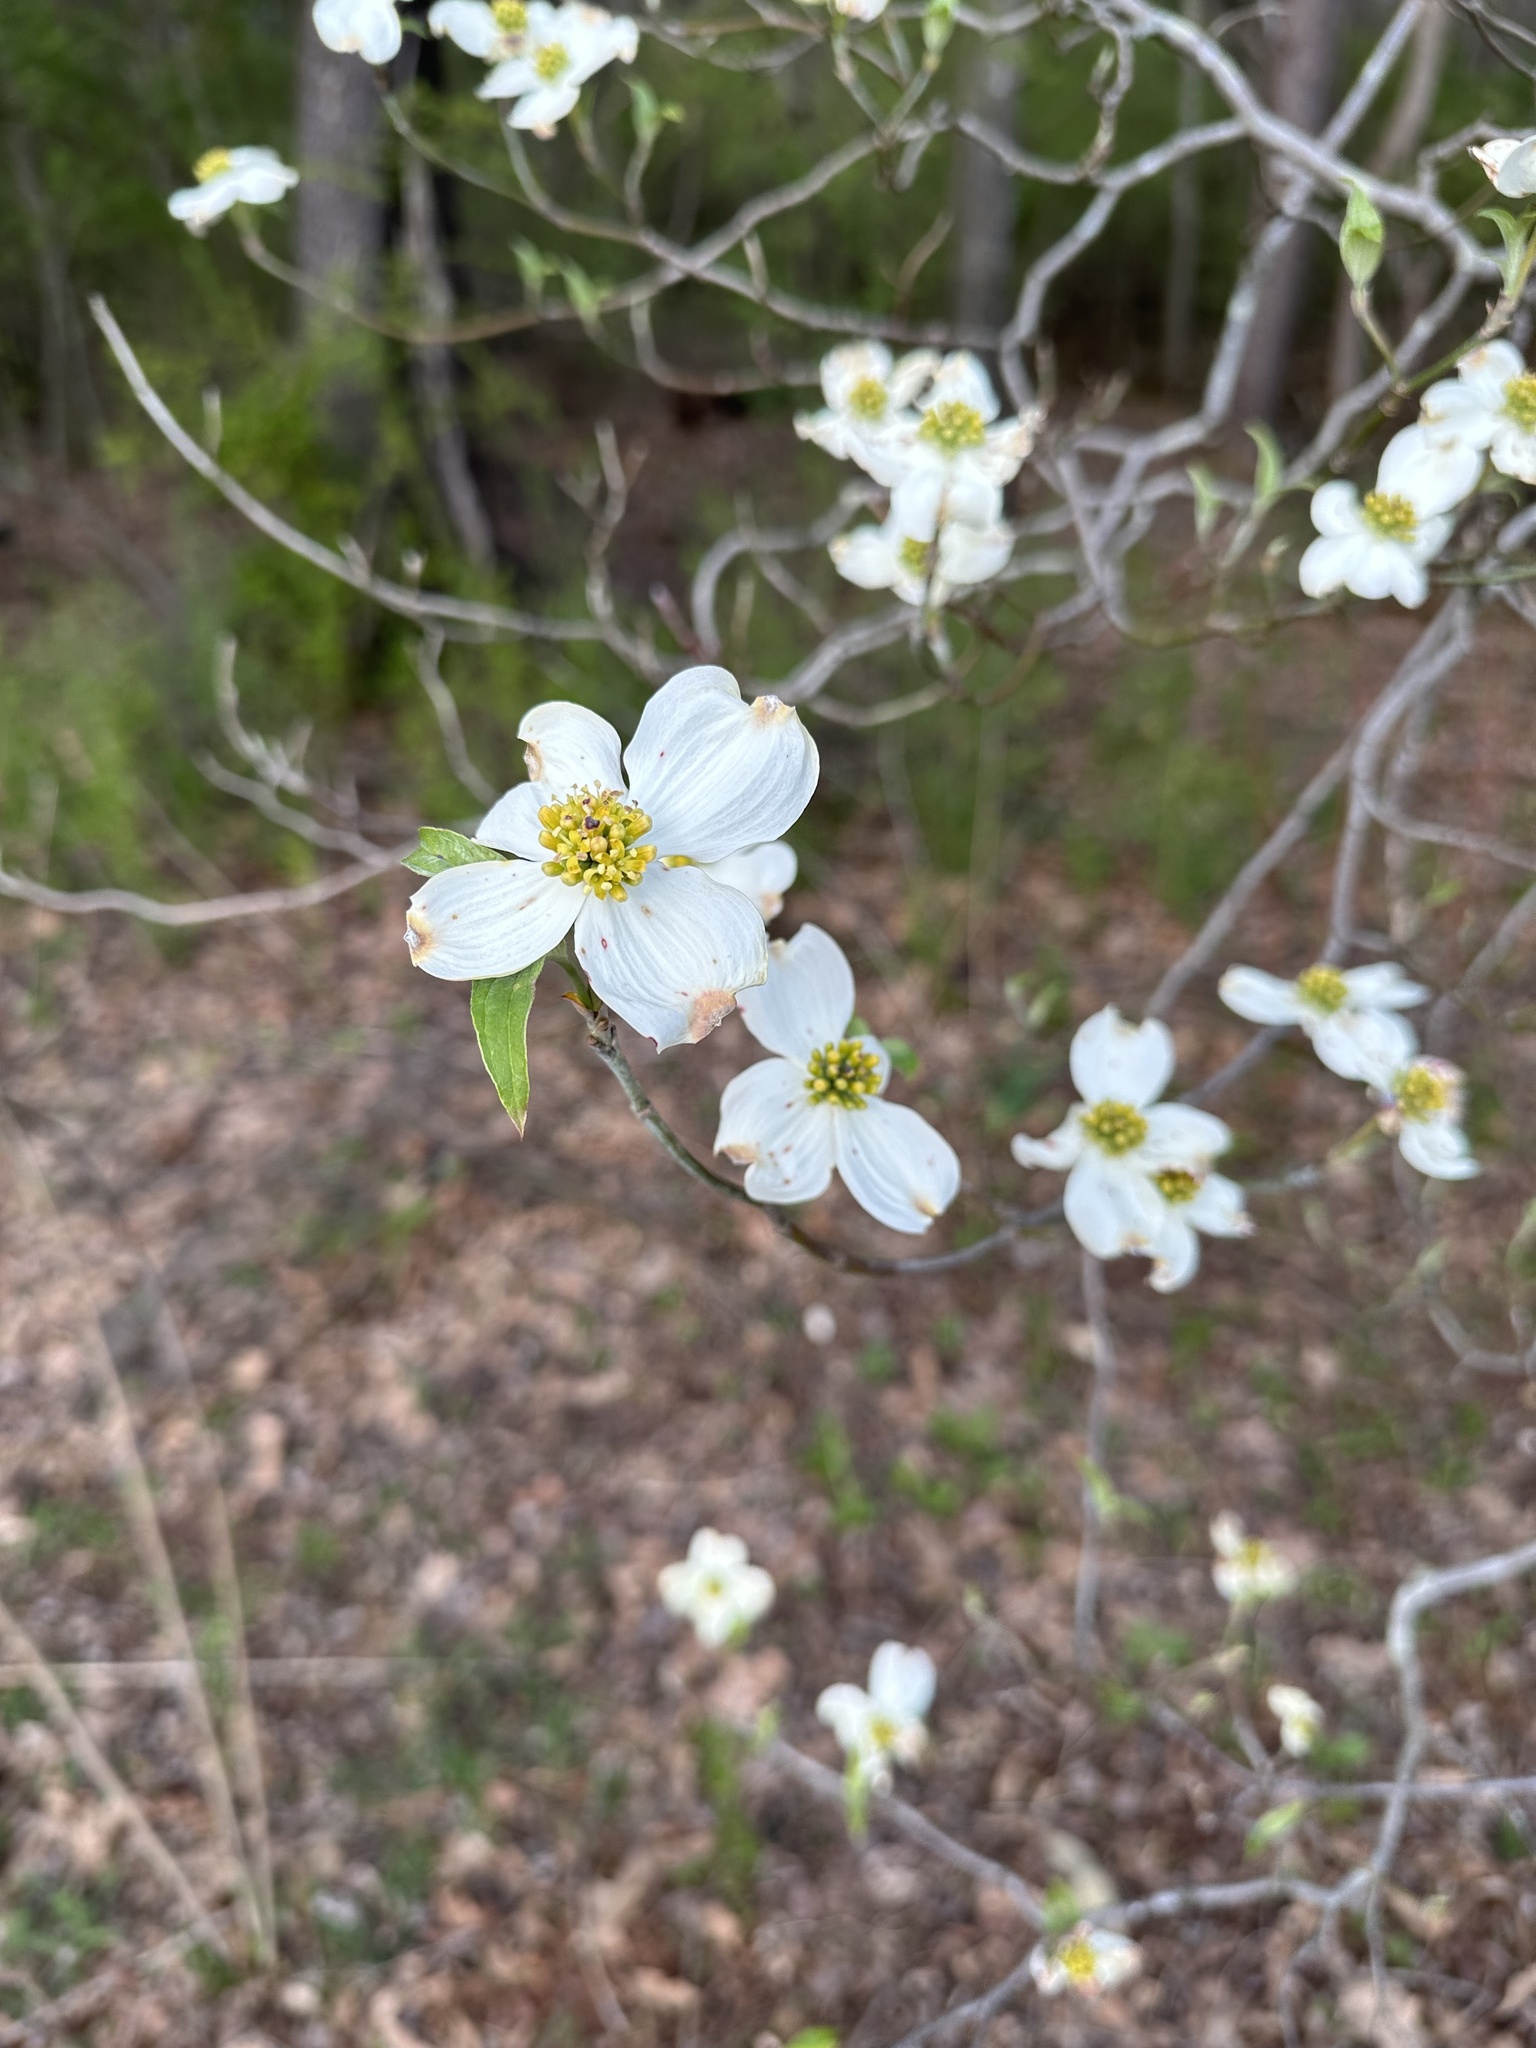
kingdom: Plantae
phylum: Tracheophyta
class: Magnoliopsida
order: Cornales
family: Cornaceae
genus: Cornus
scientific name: Cornus florida
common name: Flowering dogwood
